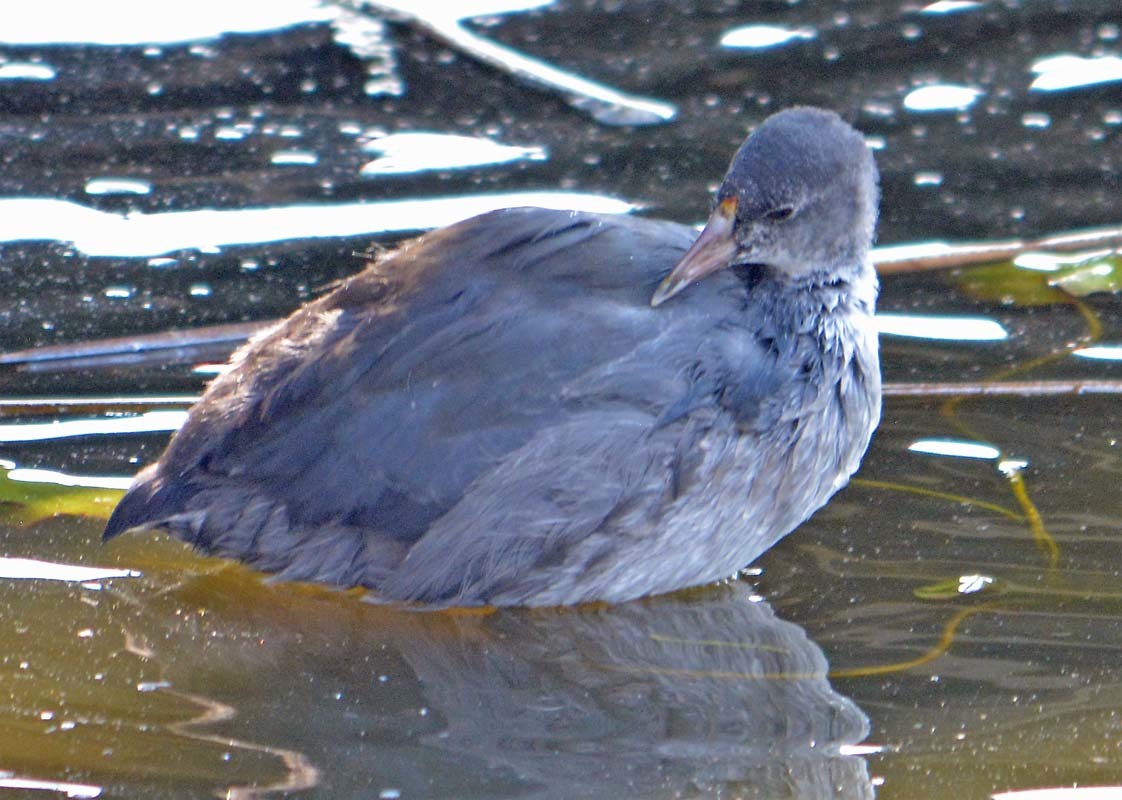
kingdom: Animalia
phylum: Chordata
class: Aves
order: Gruiformes
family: Rallidae
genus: Fulica
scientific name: Fulica americana
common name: American coot
